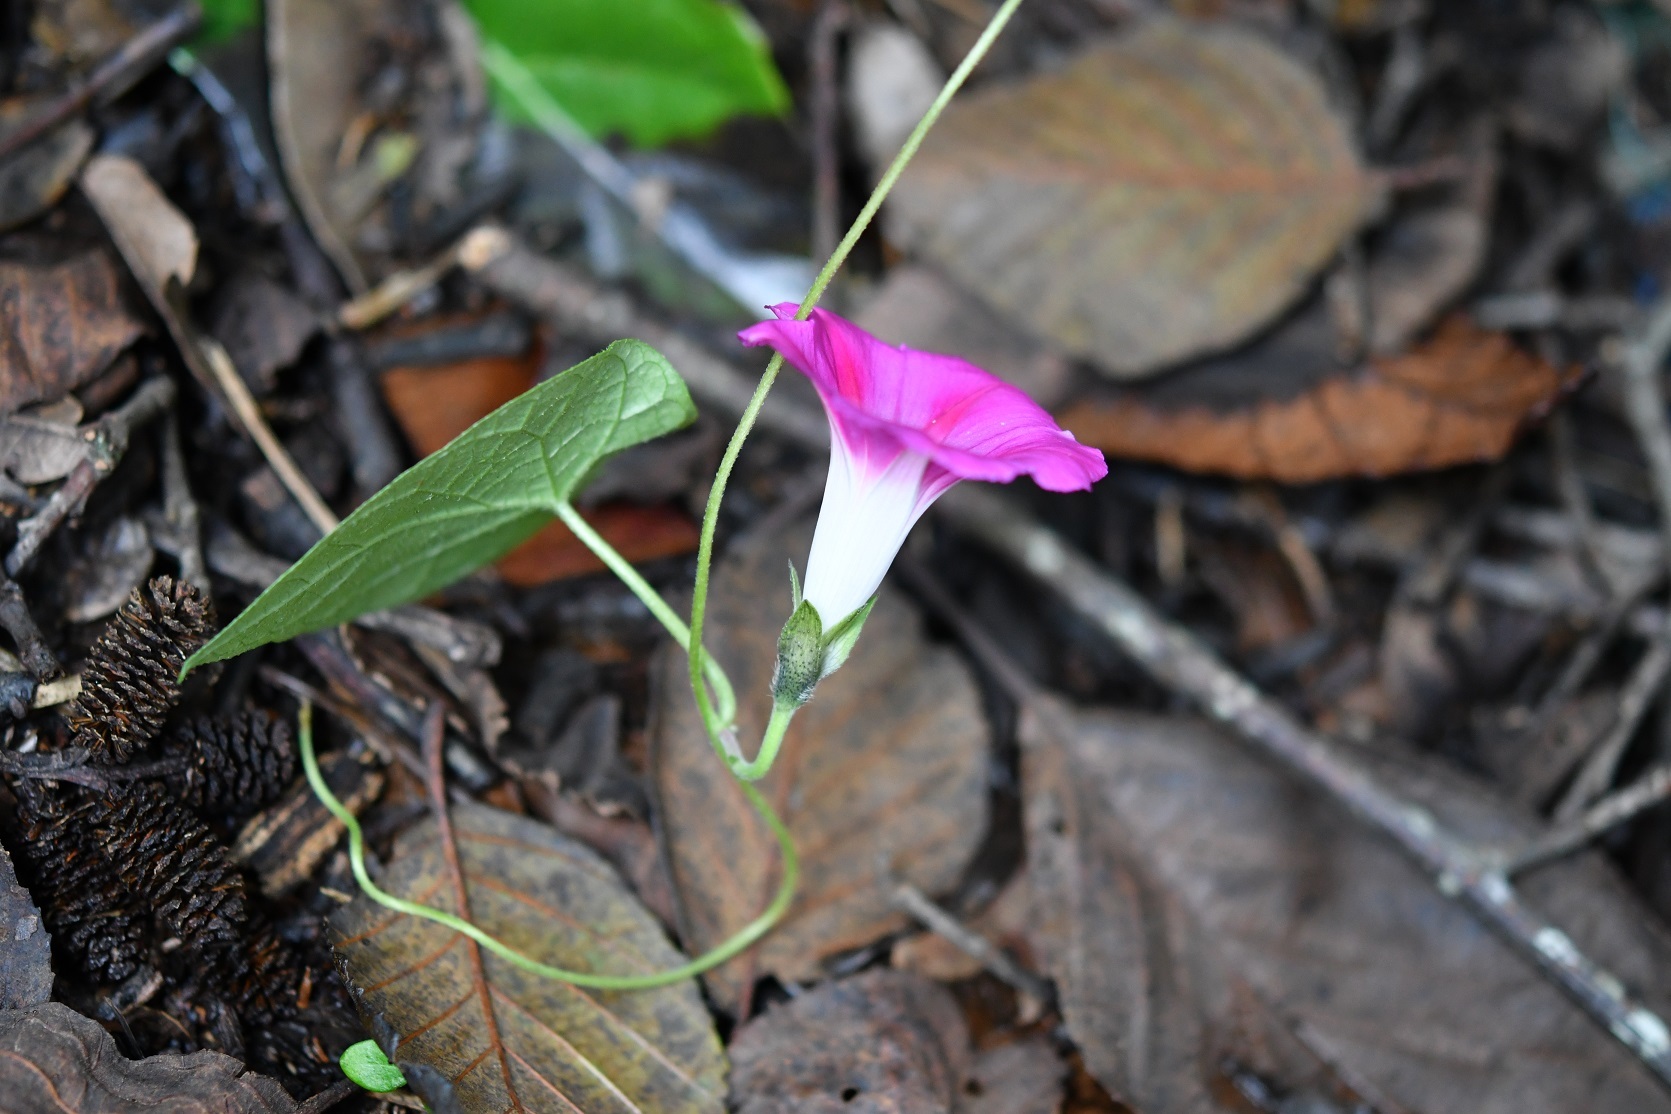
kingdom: Plantae
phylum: Tracheophyta
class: Magnoliopsida
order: Solanales
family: Convolvulaceae
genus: Ipomoea
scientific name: Ipomoea purpurea
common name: Common morning-glory
